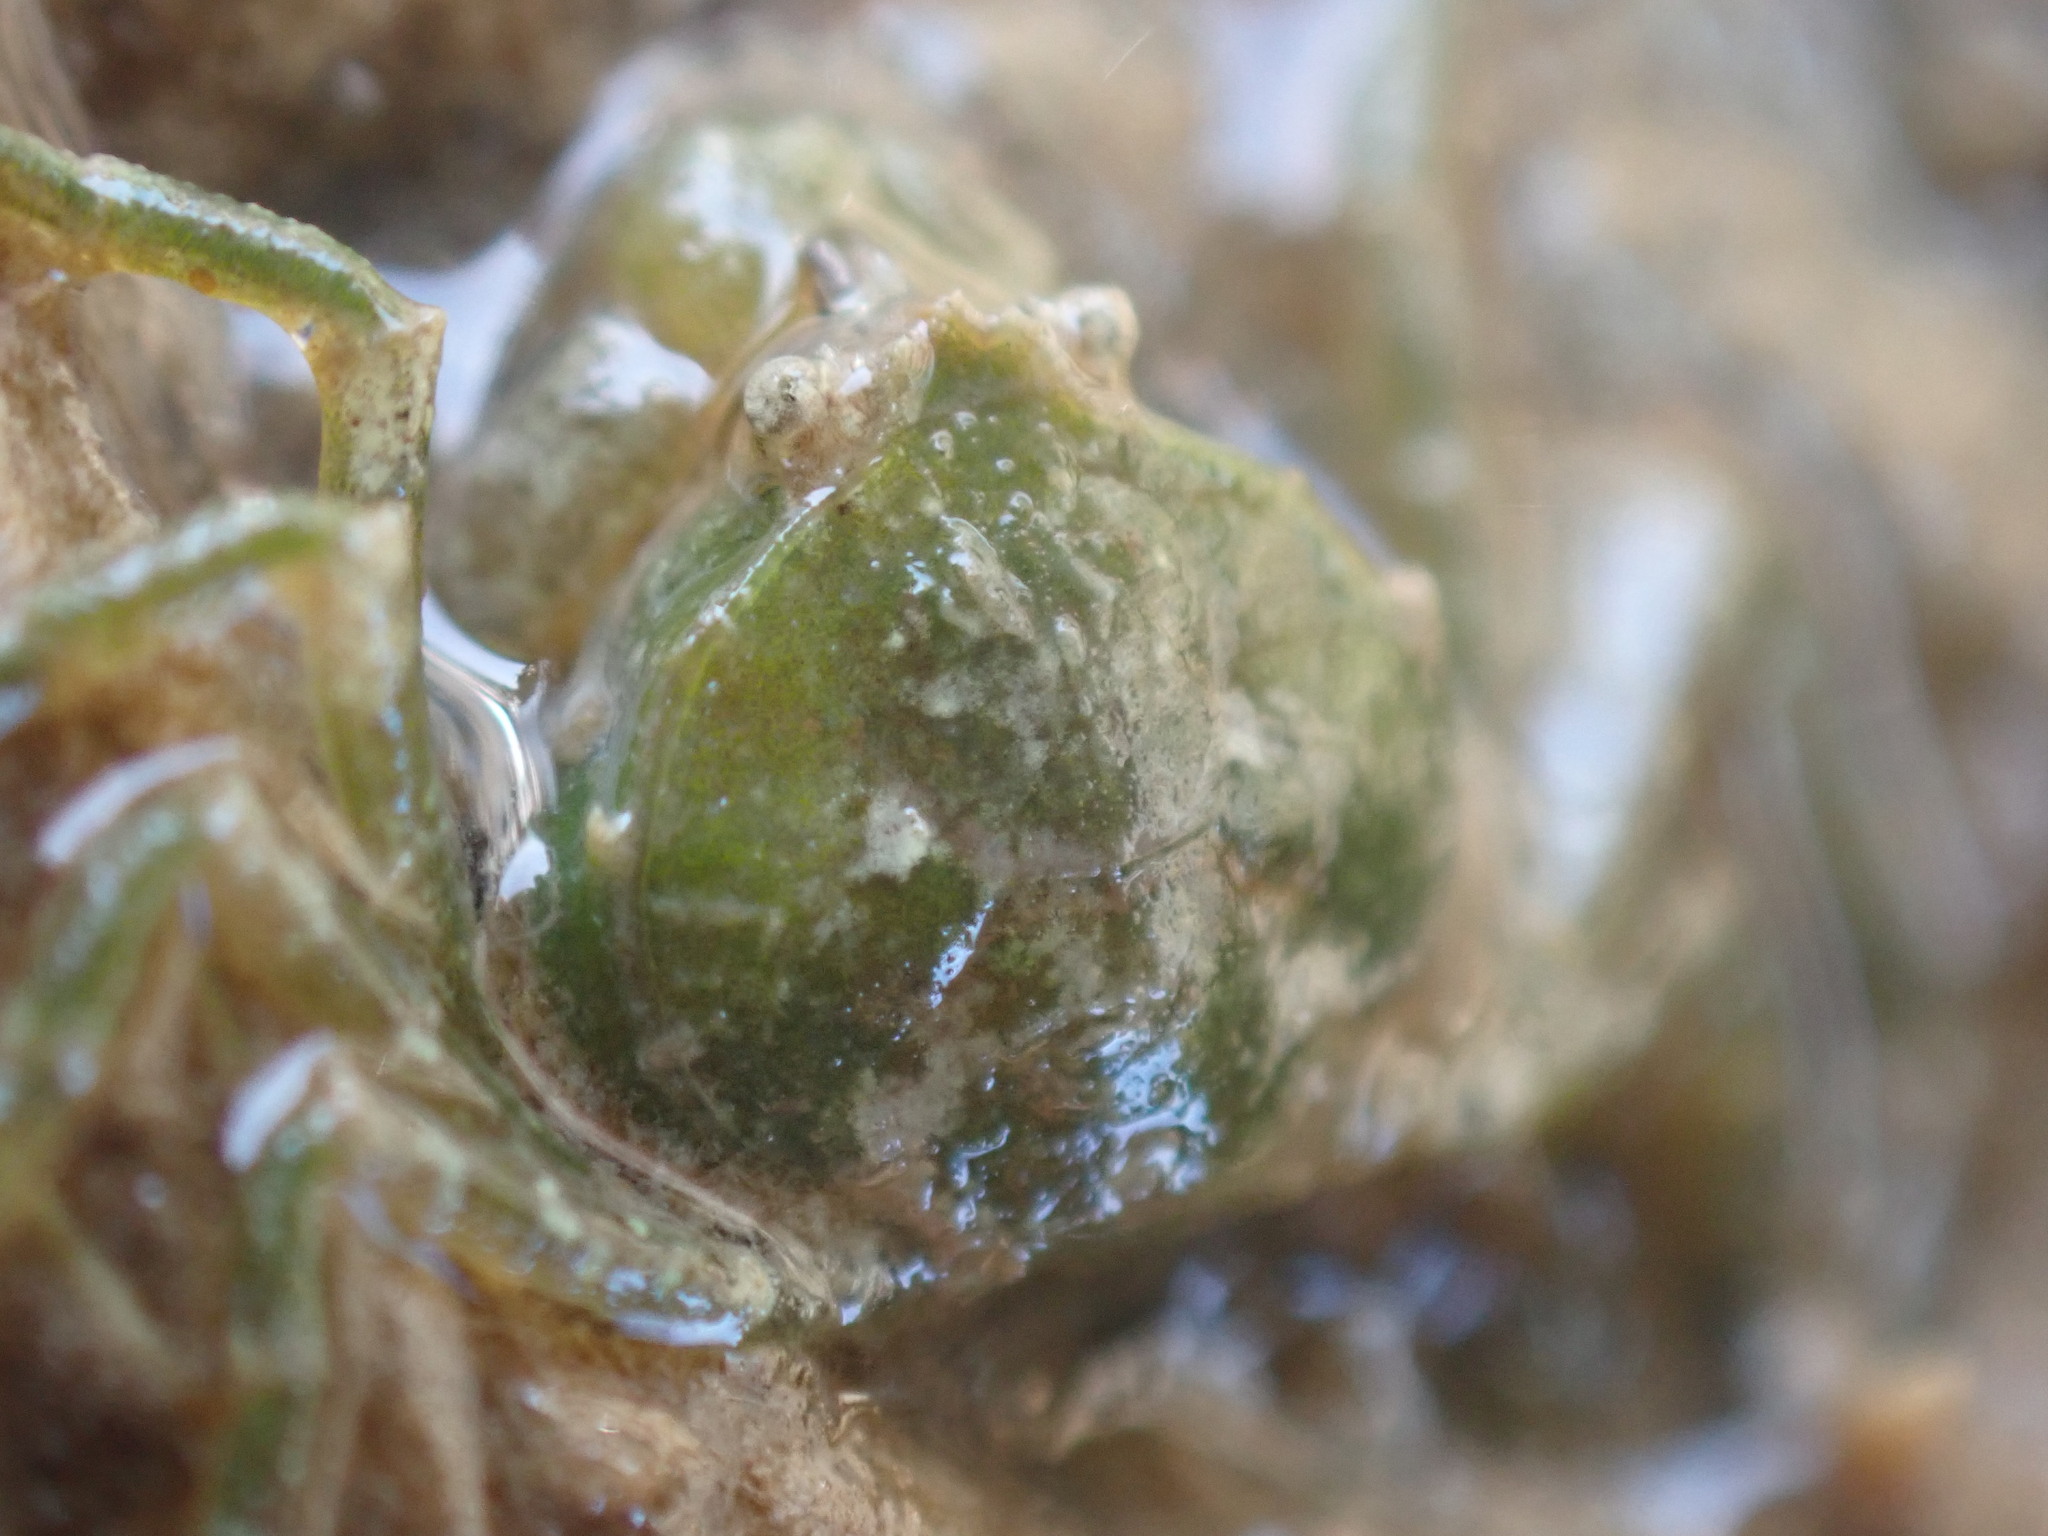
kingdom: Animalia
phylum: Arthropoda
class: Malacostraca
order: Decapoda
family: Hymenosomatidae
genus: Halicarcinus
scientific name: Halicarcinus varius
